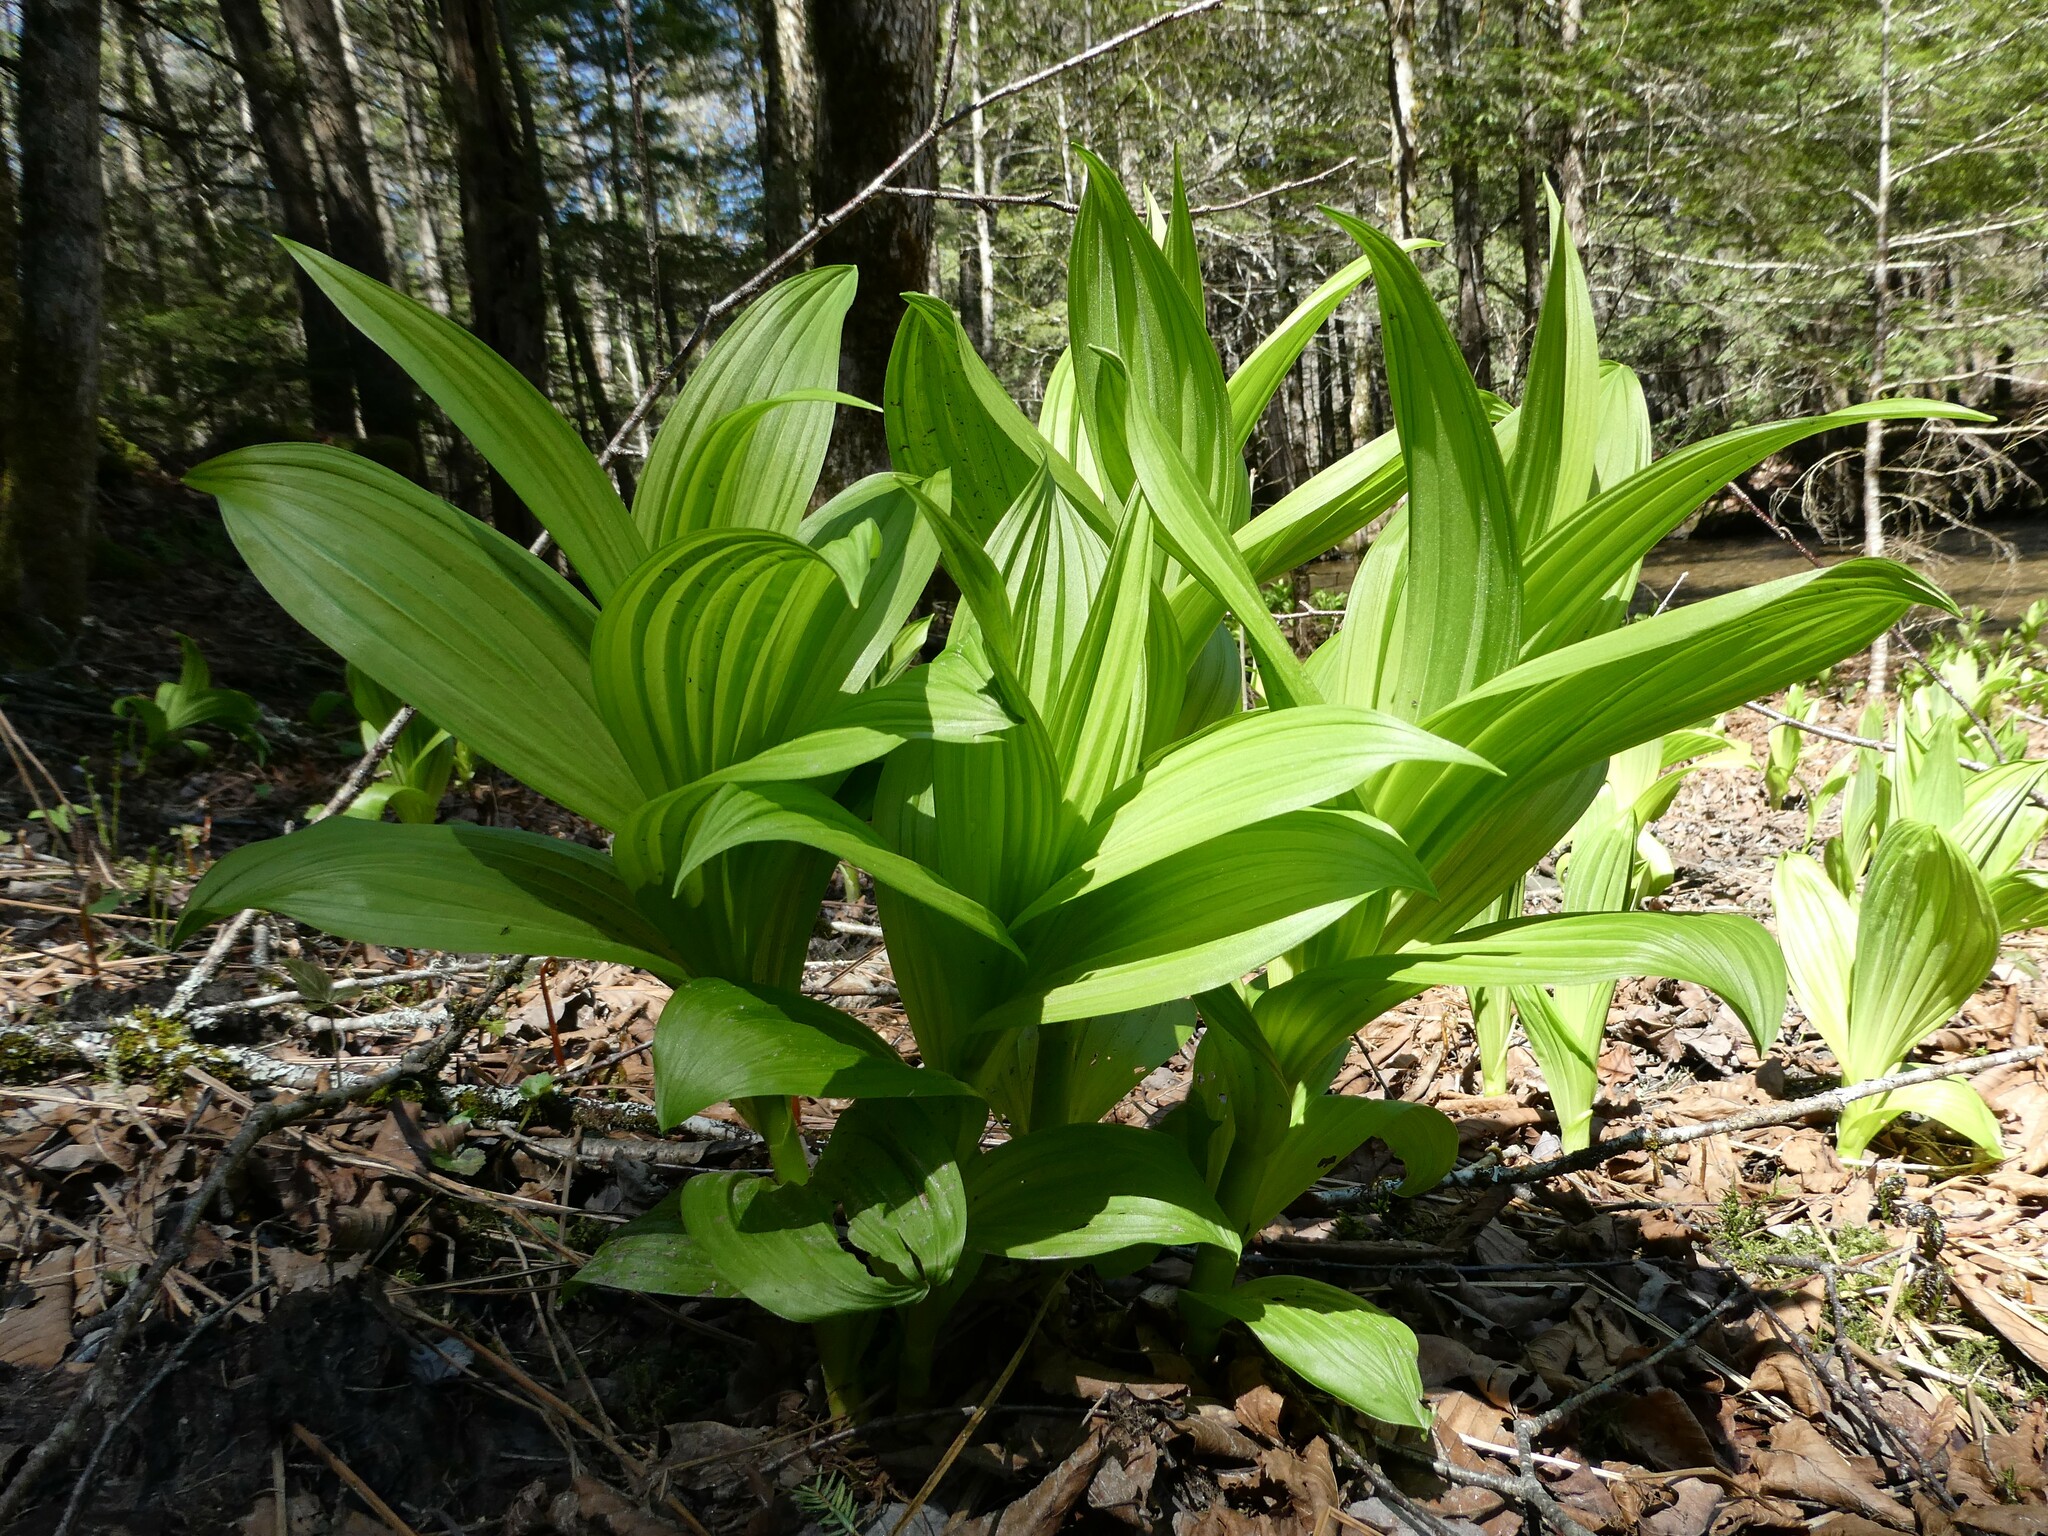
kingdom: Plantae
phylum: Tracheophyta
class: Liliopsida
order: Liliales
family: Melanthiaceae
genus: Veratrum
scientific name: Veratrum viride
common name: American false hellebore
